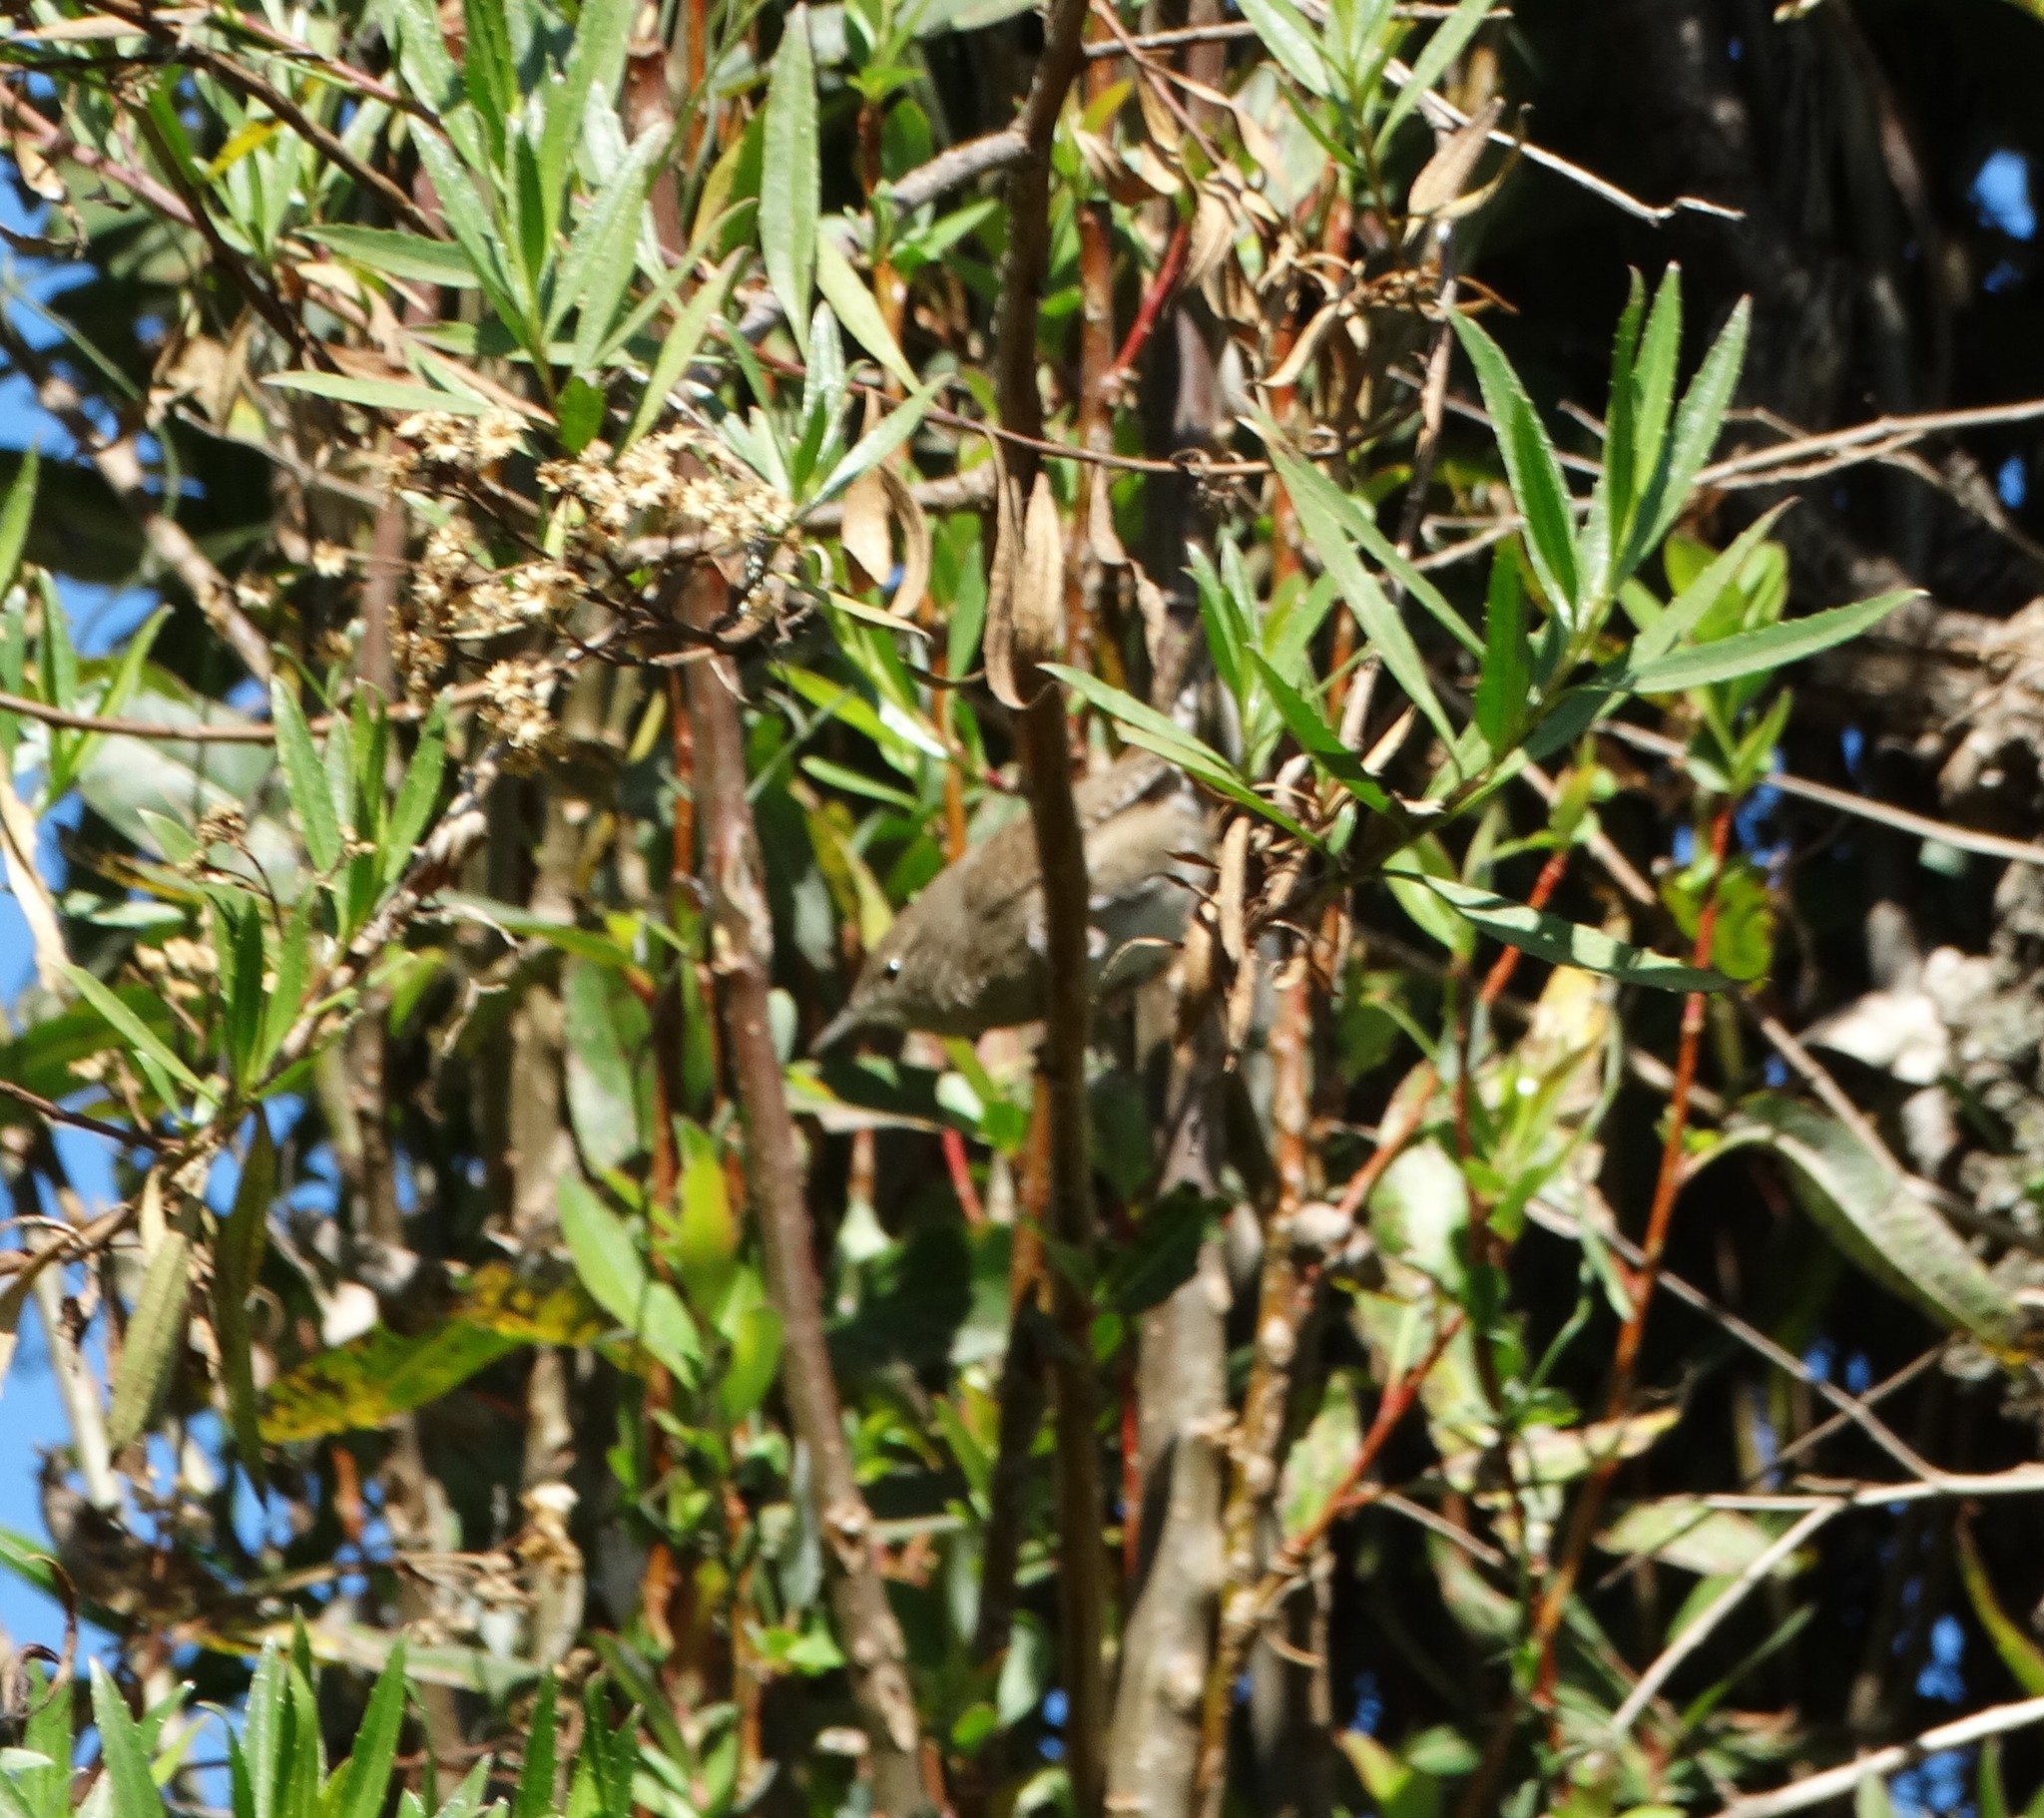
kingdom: Animalia
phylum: Chordata
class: Aves
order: Passeriformes
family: Troglodytidae
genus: Troglodytes
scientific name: Troglodytes aedon
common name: House wren
